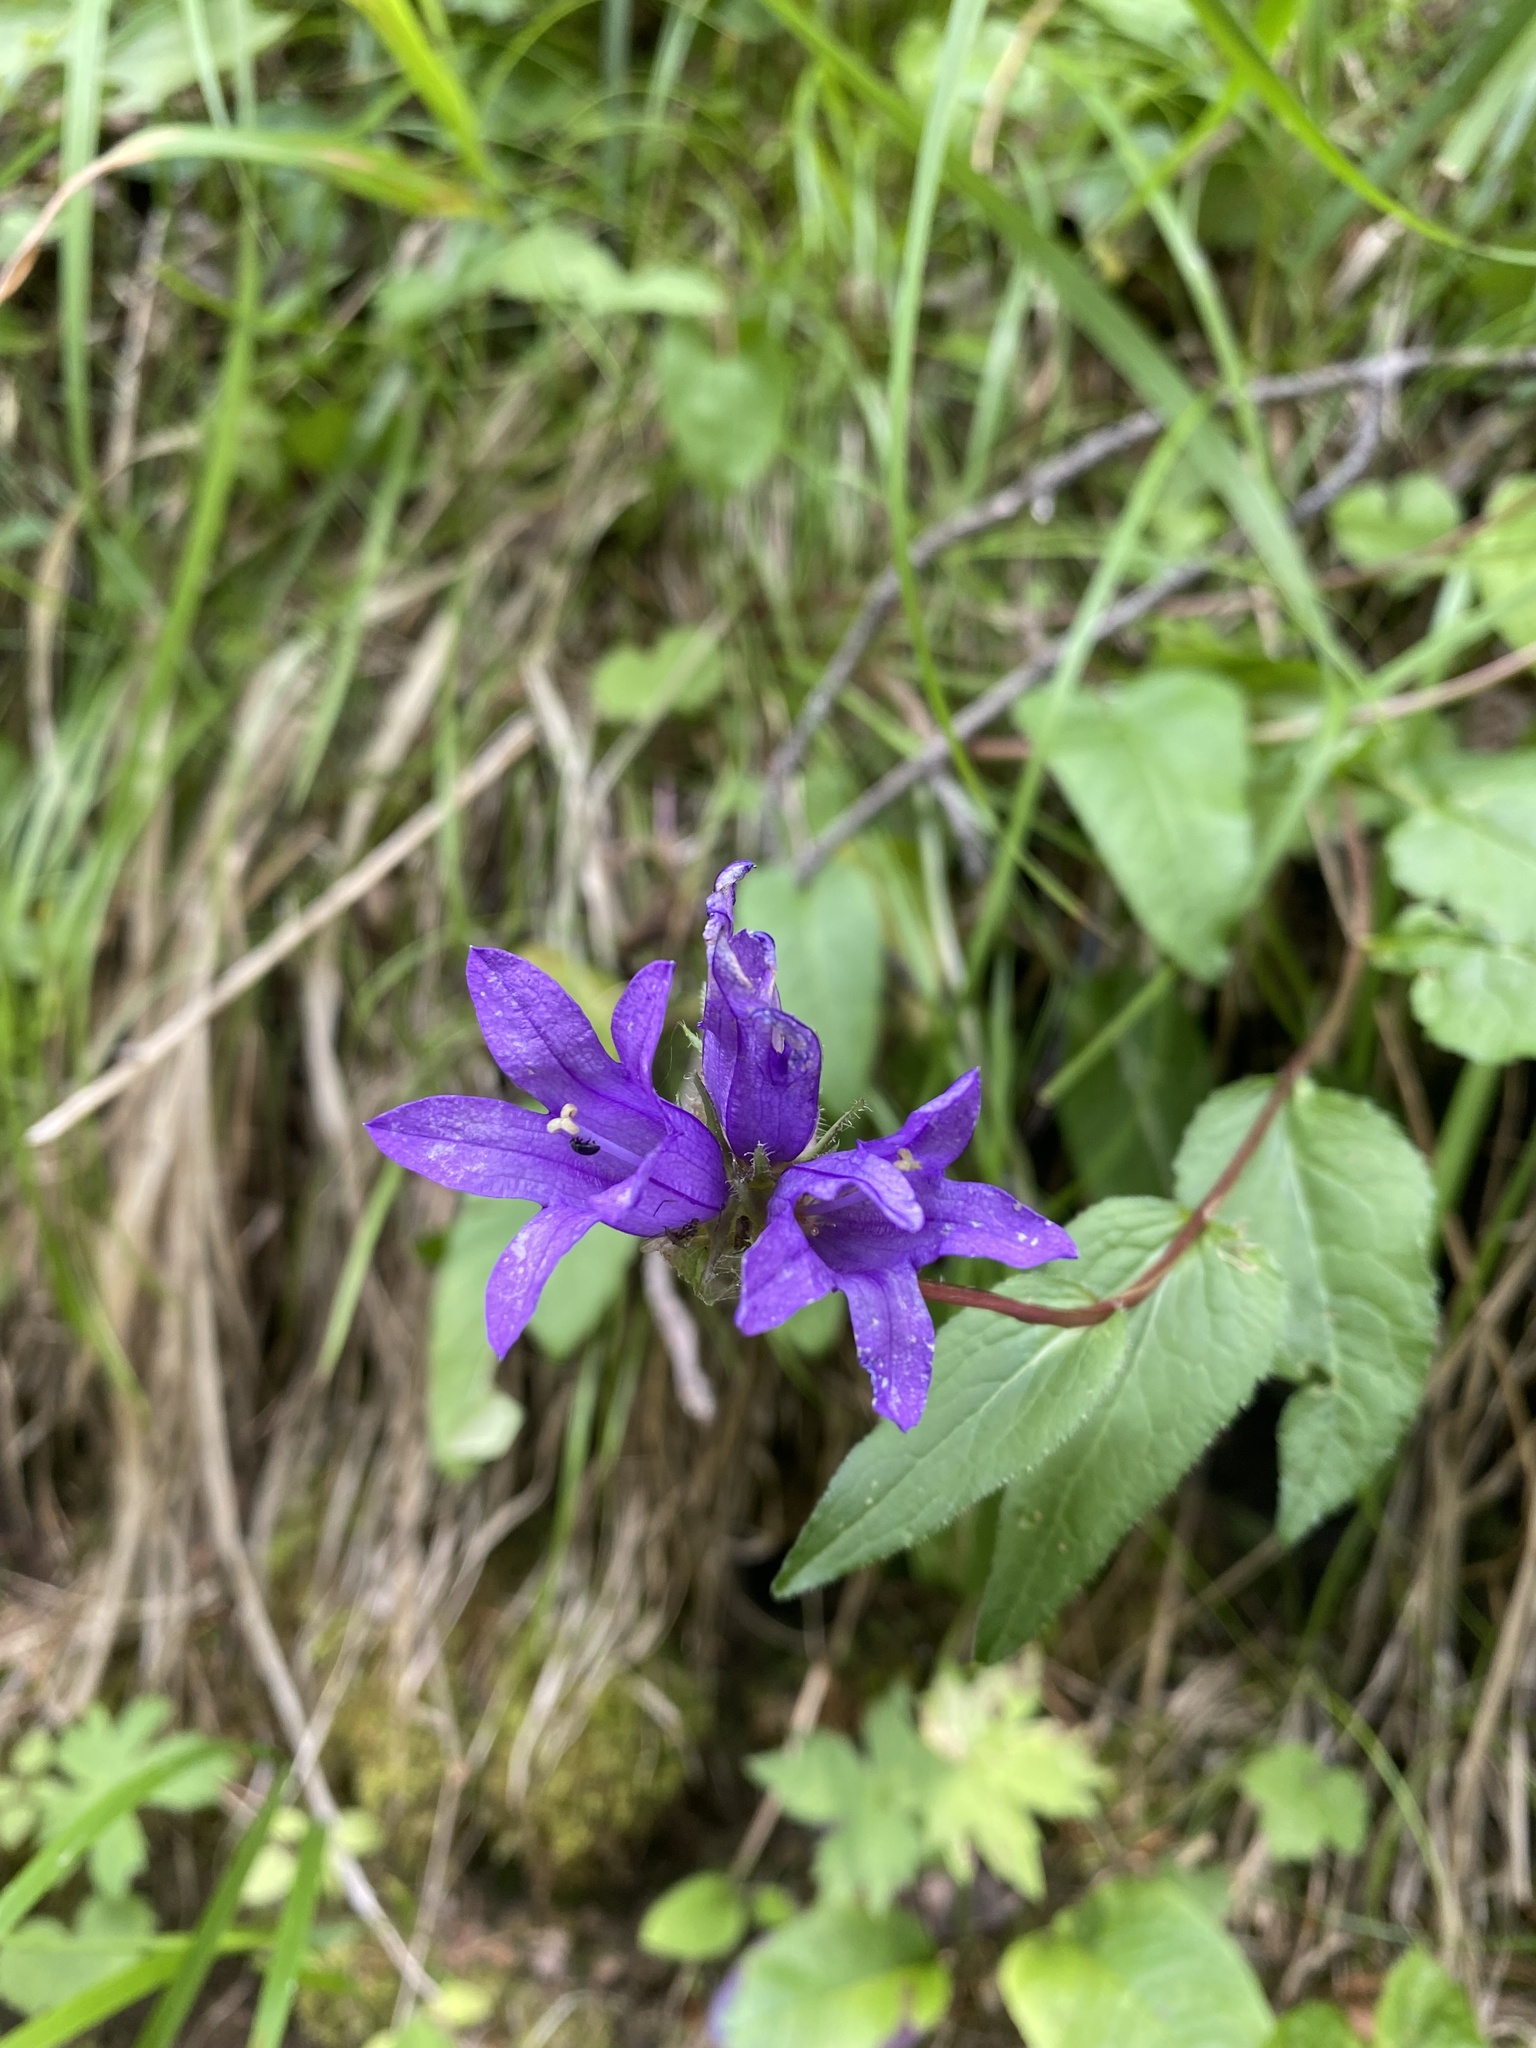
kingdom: Plantae
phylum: Tracheophyta
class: Magnoliopsida
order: Asterales
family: Campanulaceae
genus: Campanula
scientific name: Campanula glomerata
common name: Clustered bellflower
